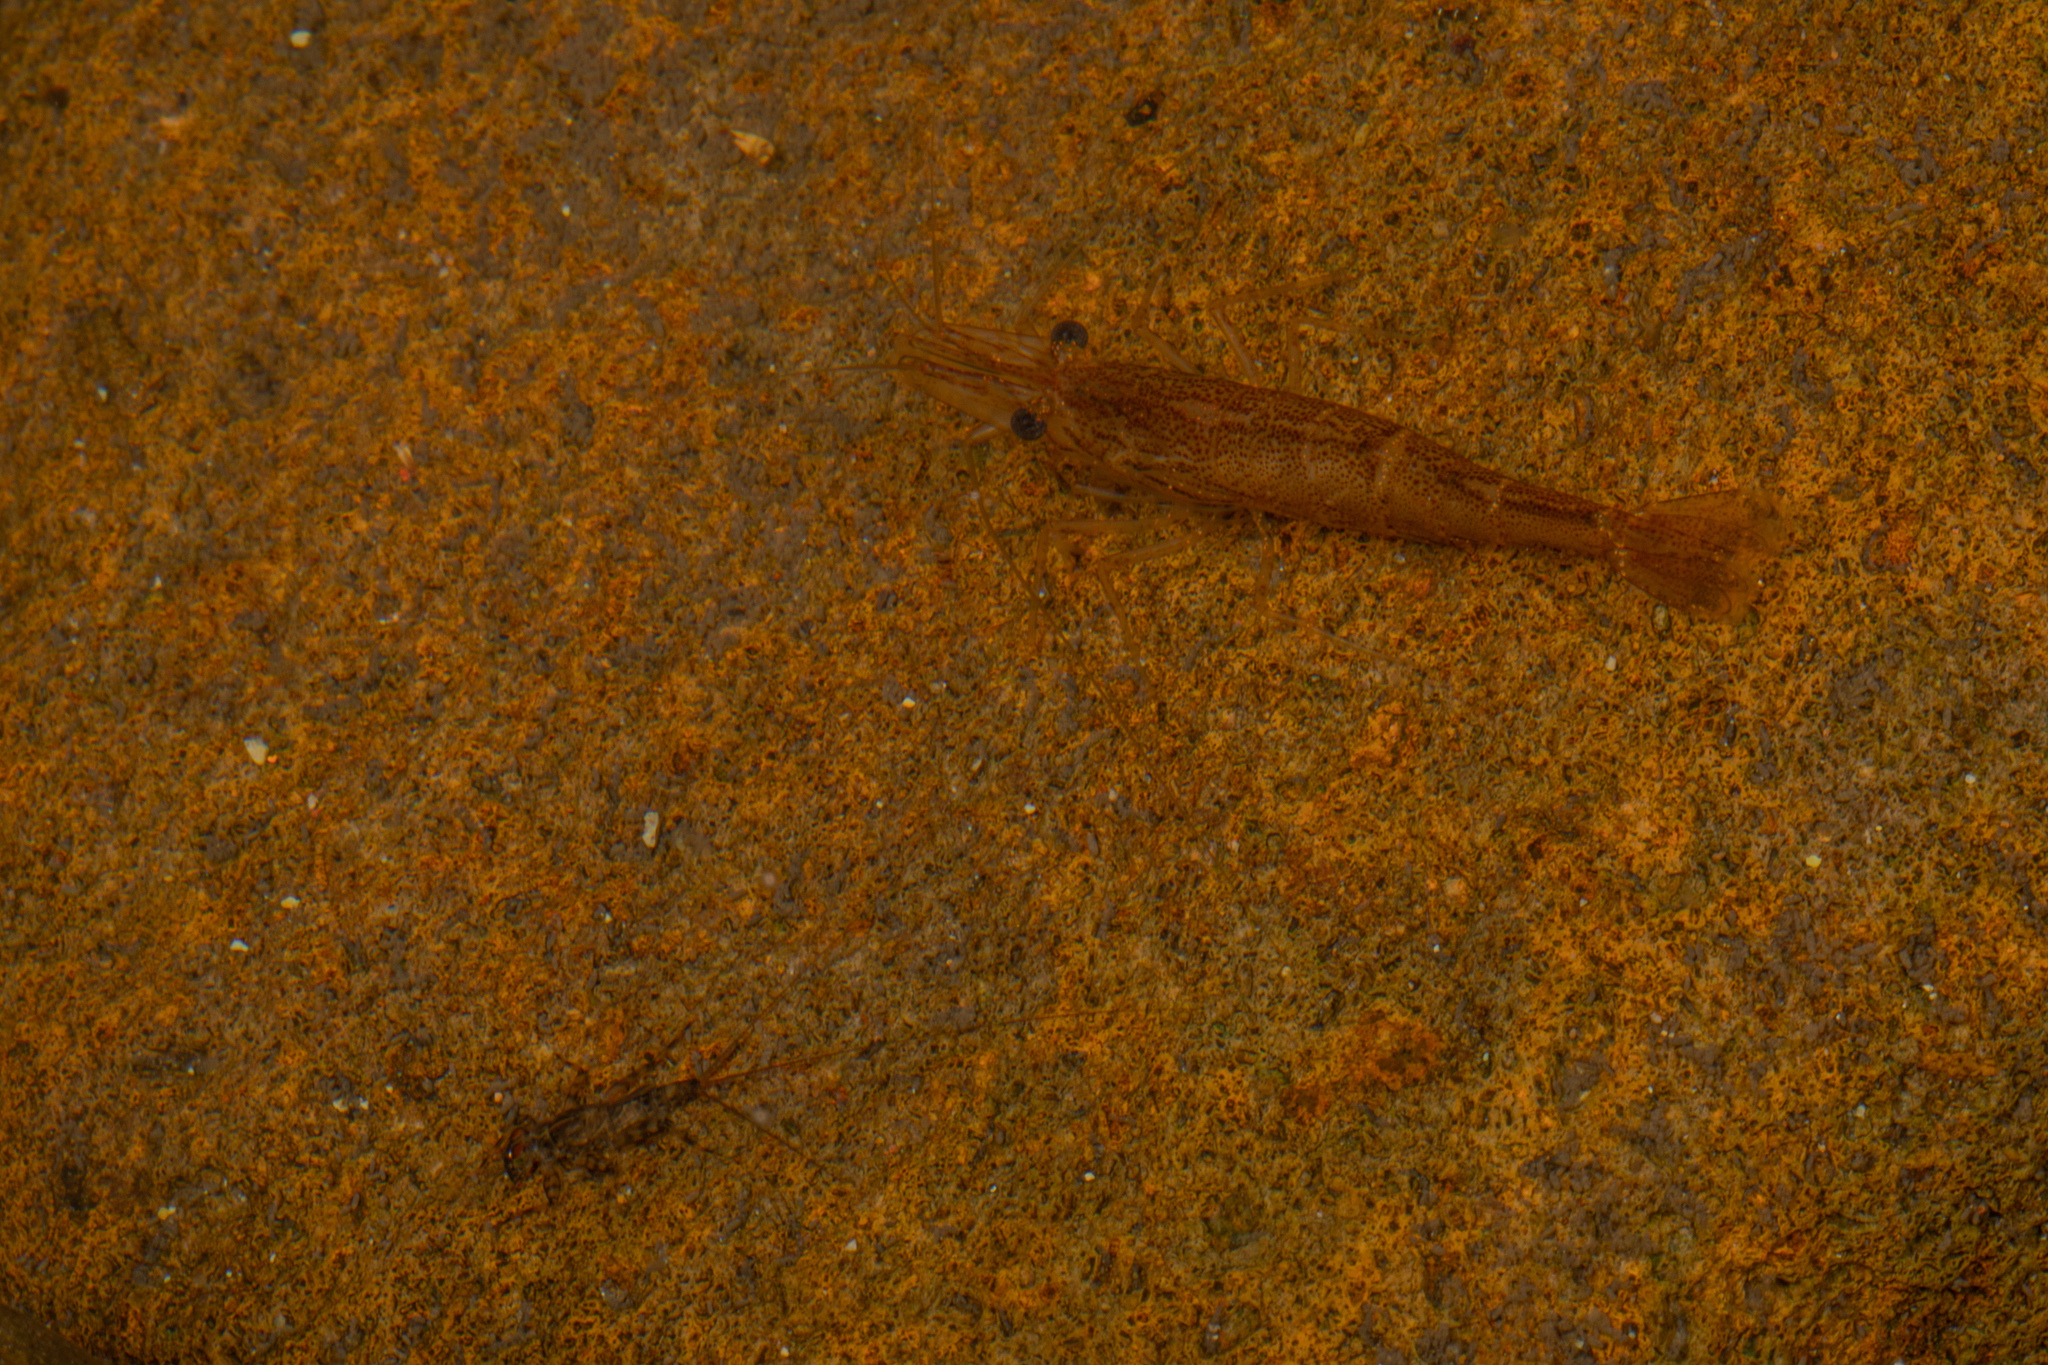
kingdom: Animalia
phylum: Arthropoda
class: Malacostraca
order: Decapoda
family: Atyidae
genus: Paratya
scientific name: Paratya curvirostris
